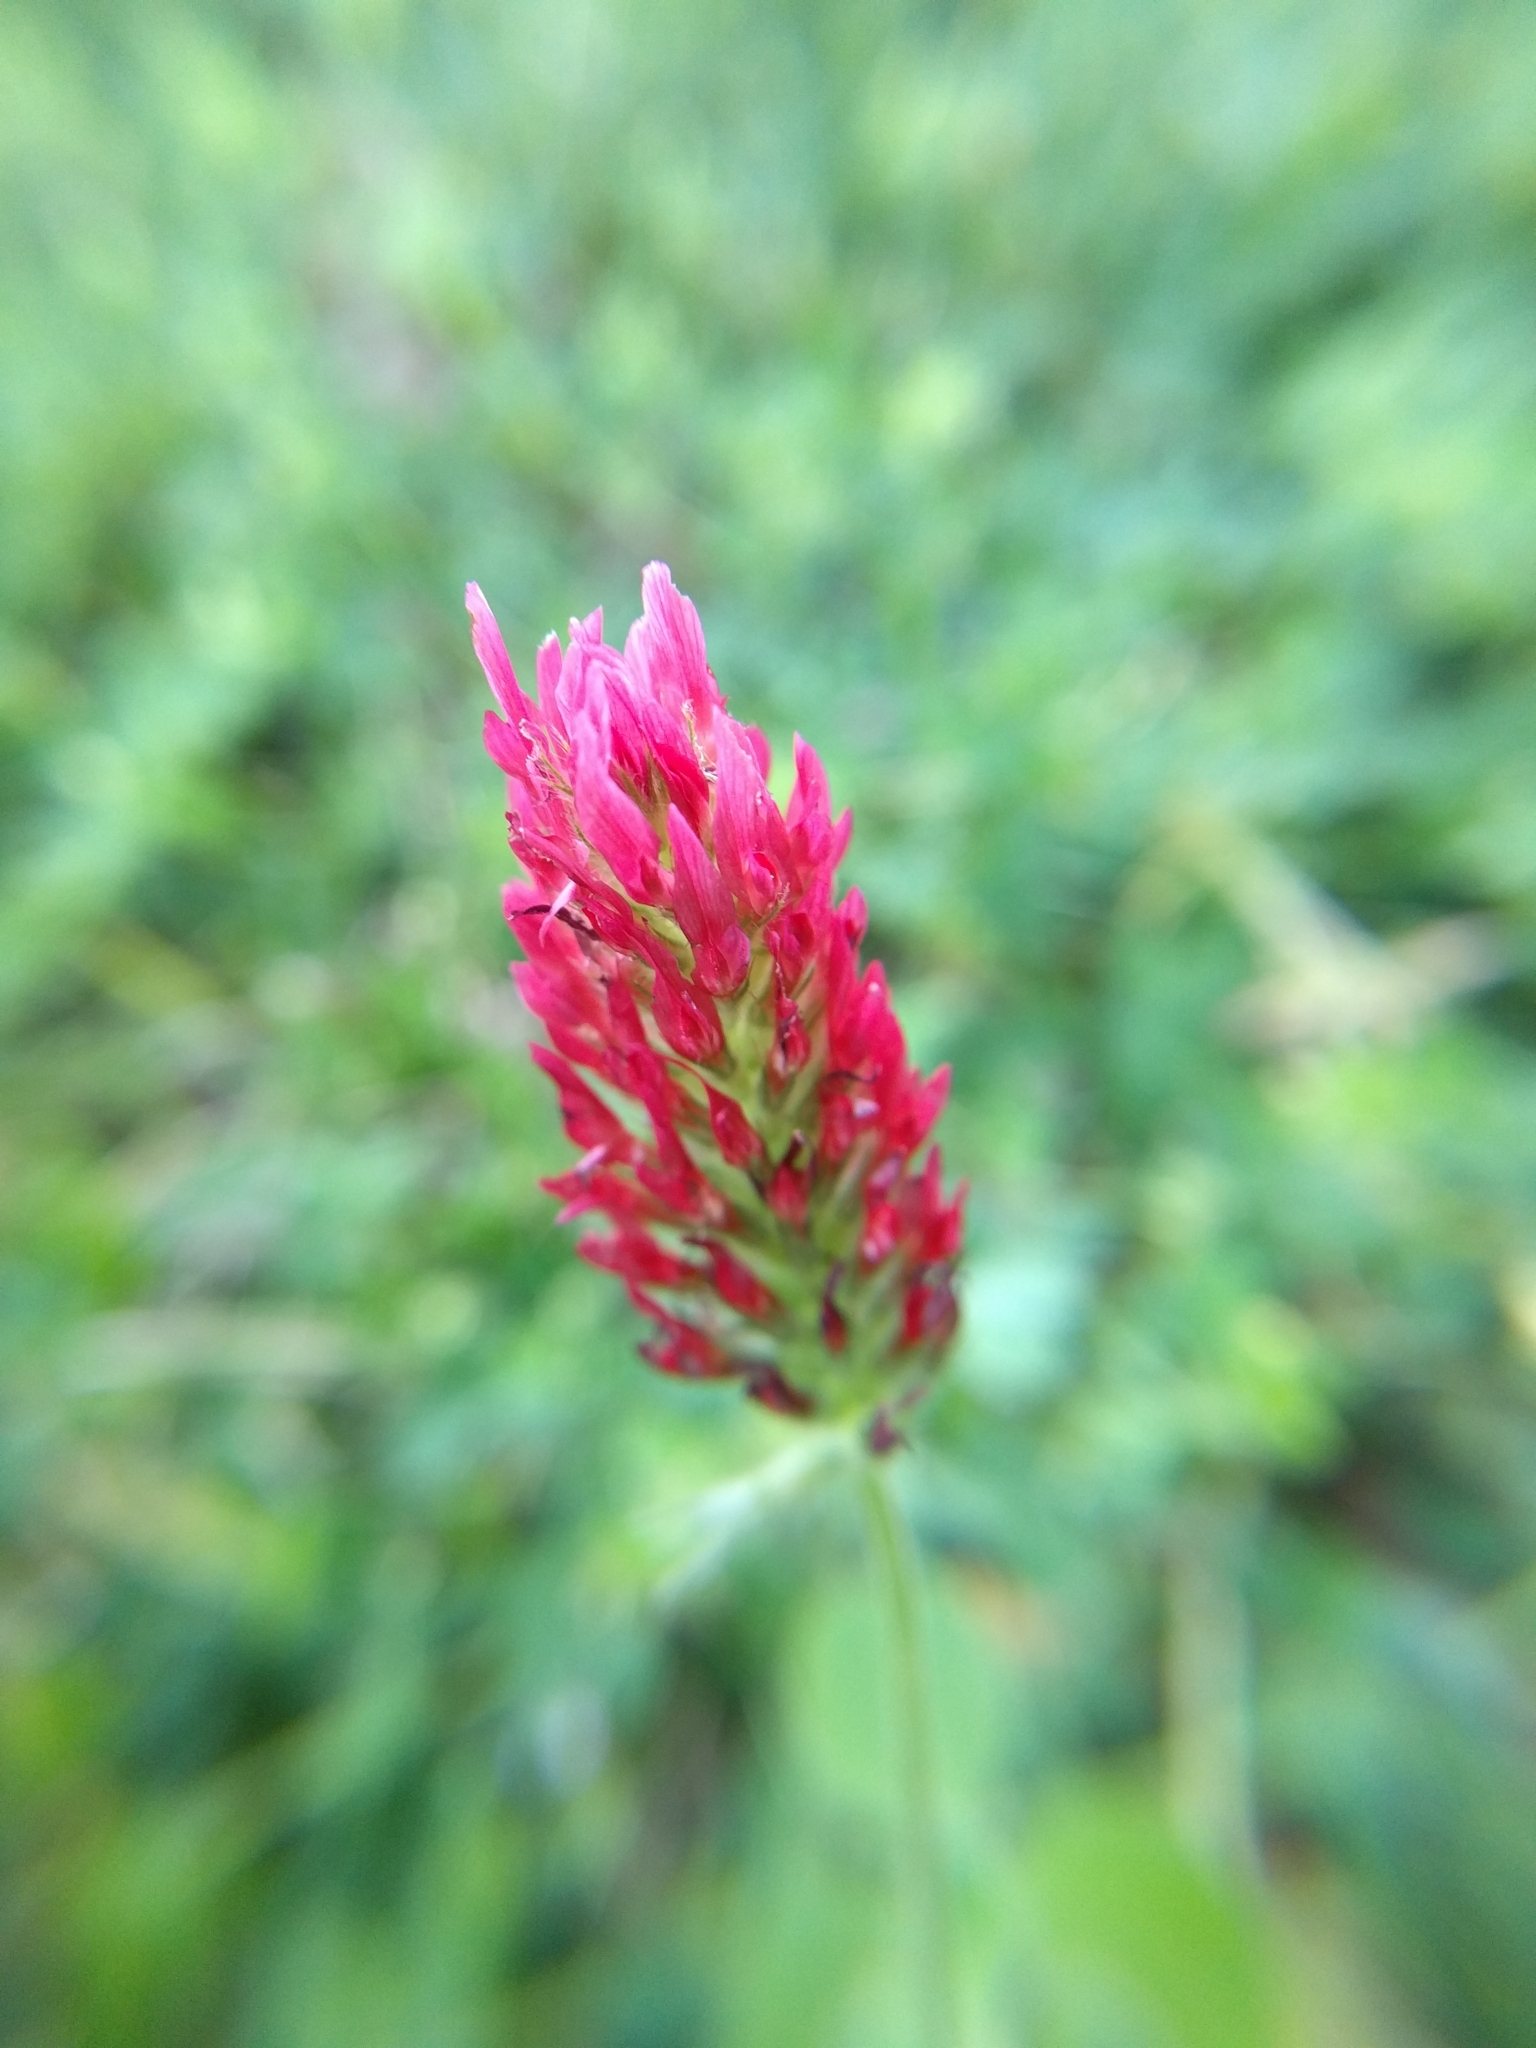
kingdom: Plantae
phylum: Tracheophyta
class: Magnoliopsida
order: Fabales
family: Fabaceae
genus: Trifolium
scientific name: Trifolium incarnatum
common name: Crimson clover
